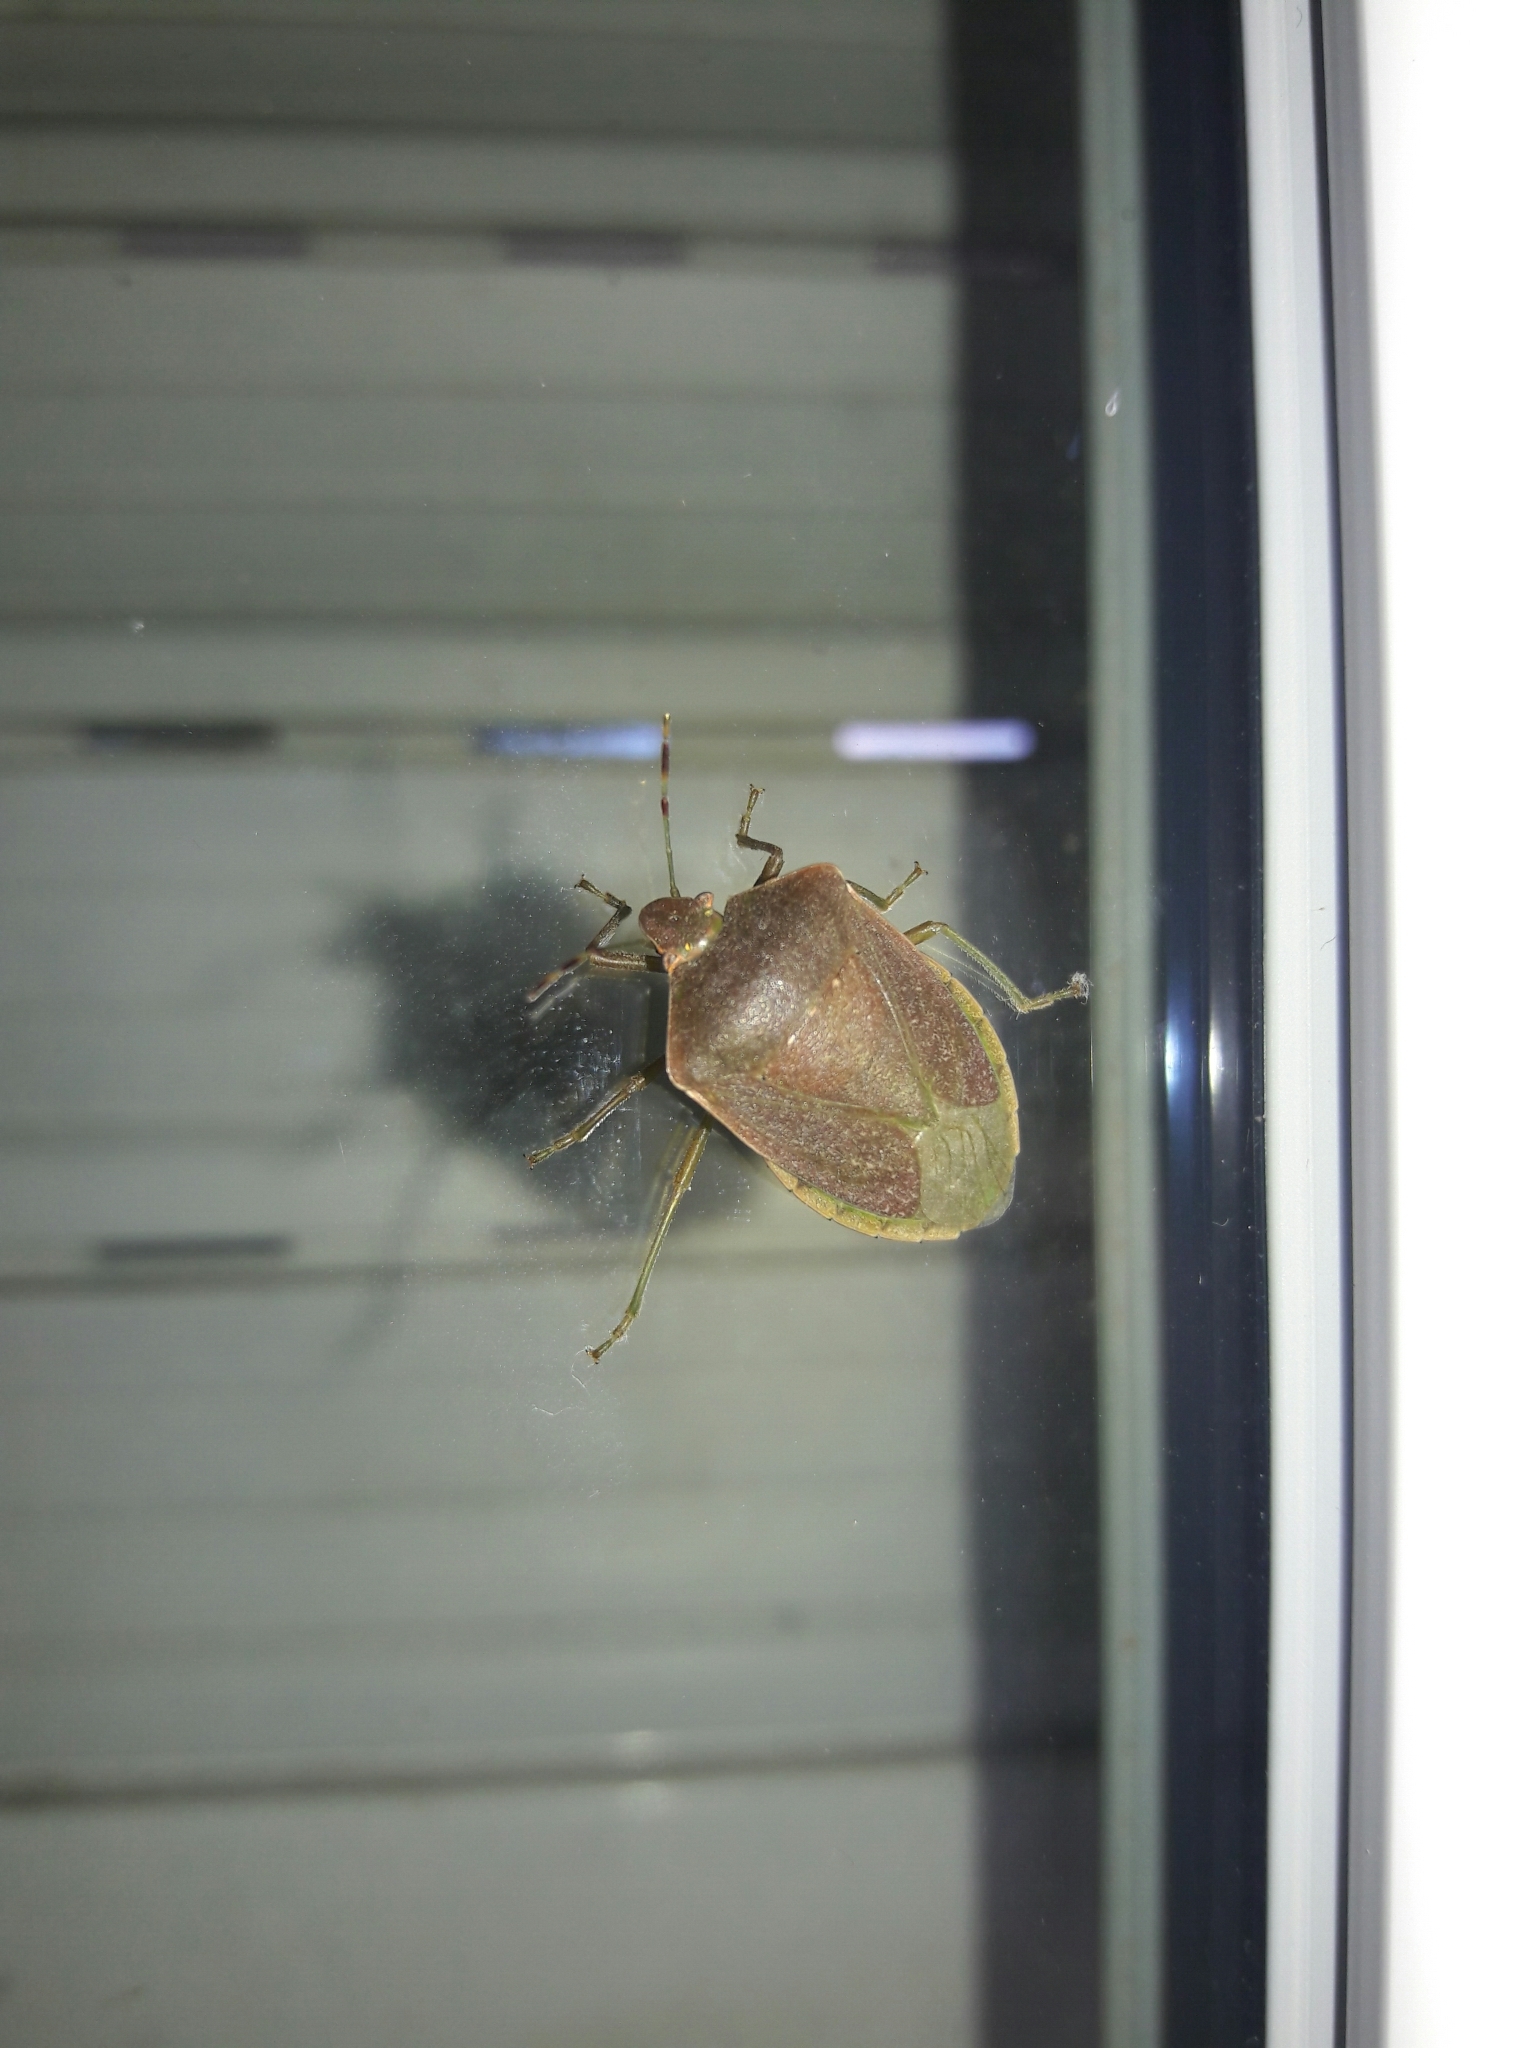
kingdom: Animalia
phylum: Arthropoda
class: Insecta
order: Hemiptera
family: Pentatomidae
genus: Nezara
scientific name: Nezara viridula
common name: Southern green stink bug
